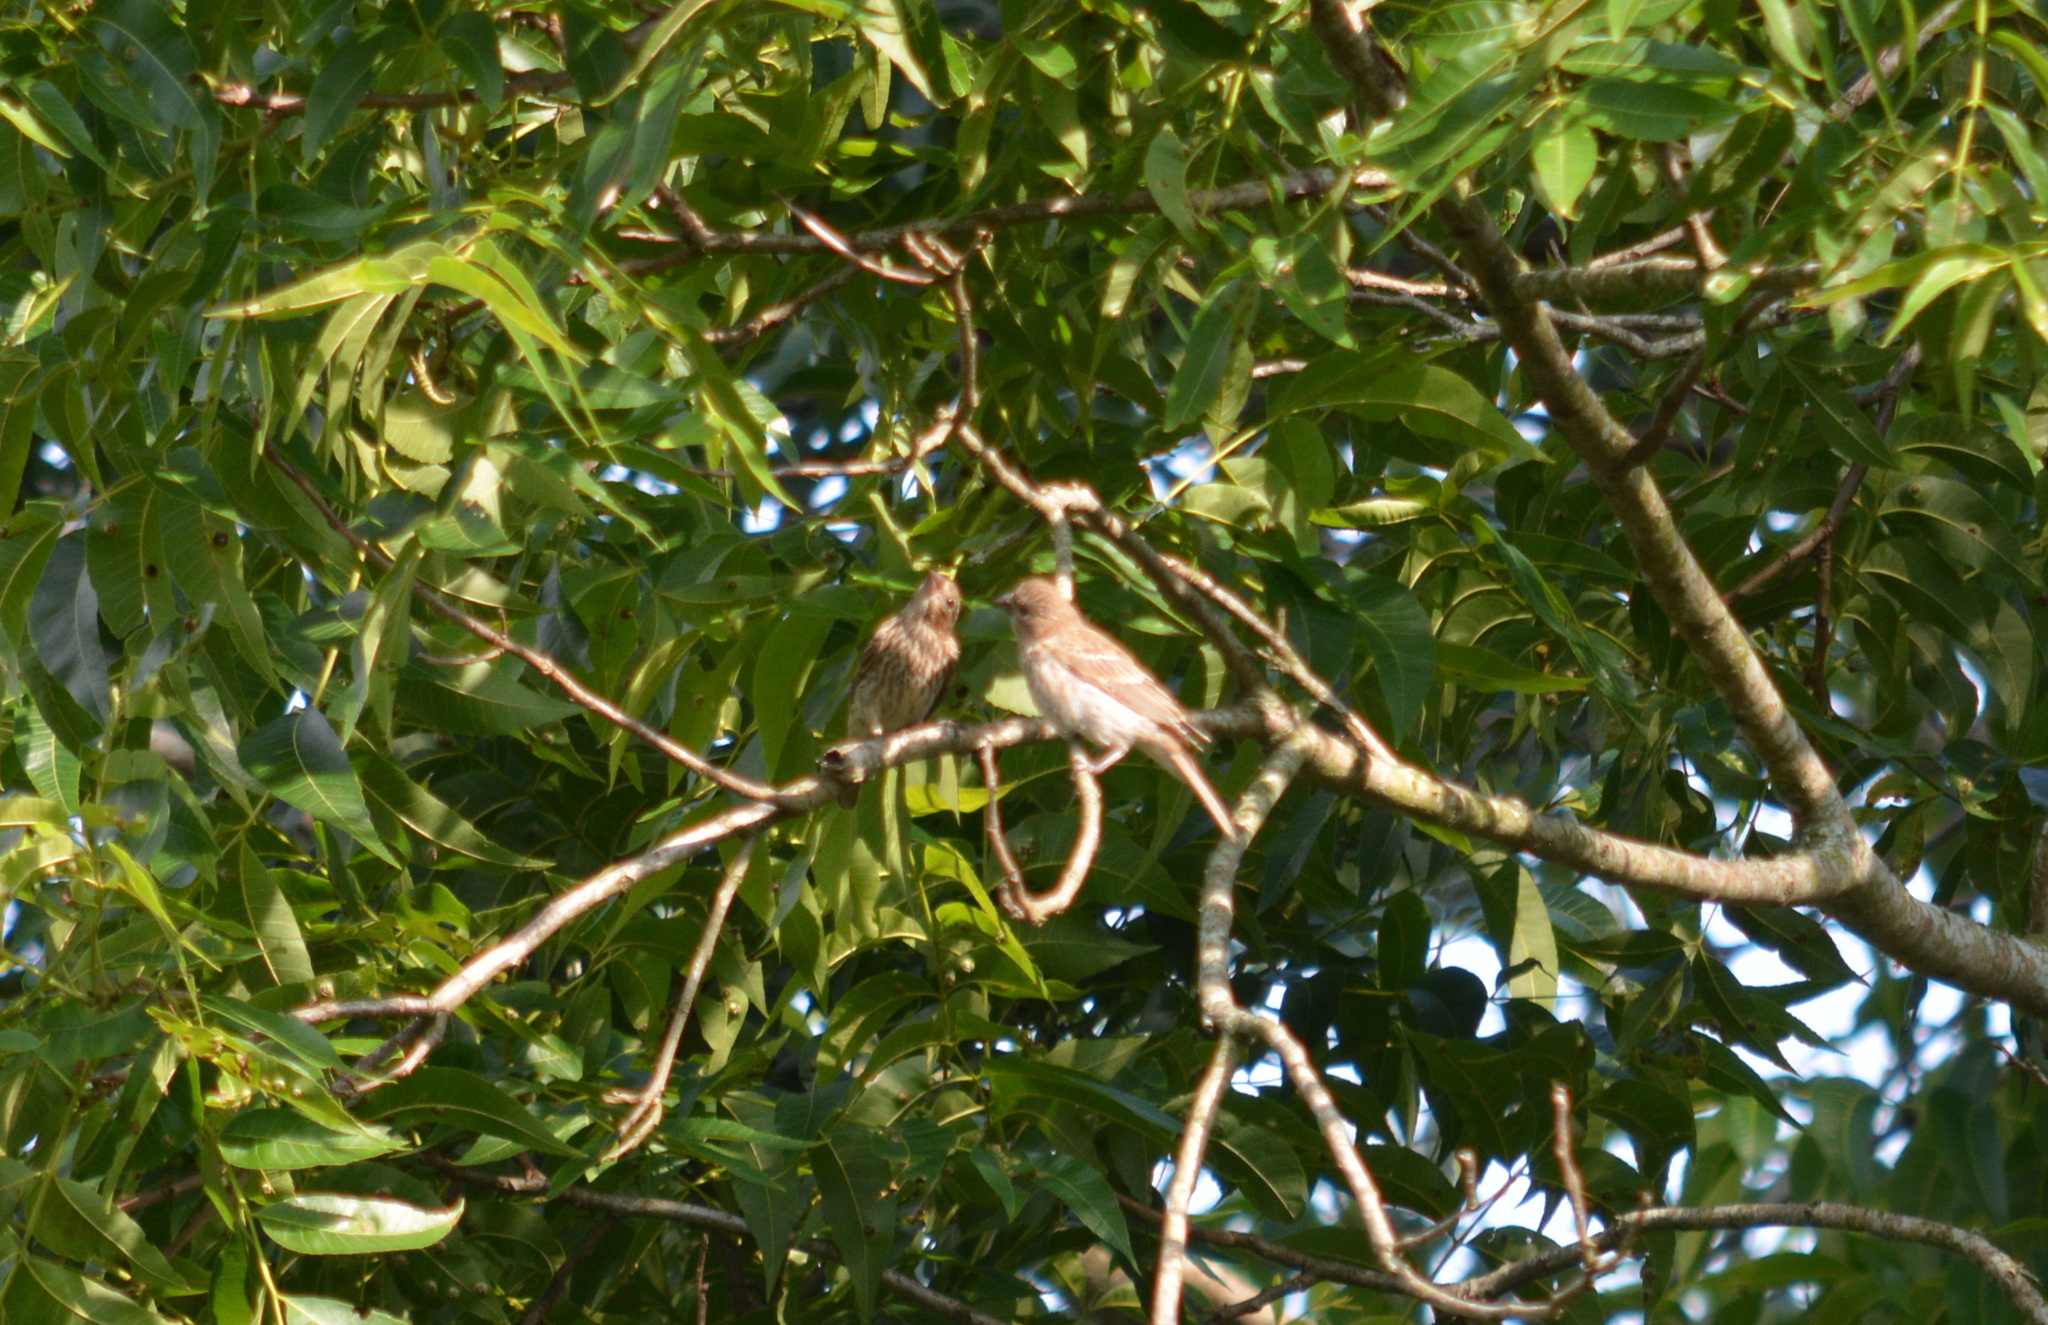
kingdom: Animalia
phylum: Chordata
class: Aves
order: Passeriformes
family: Fringillidae
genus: Haemorhous
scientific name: Haemorhous mexicanus
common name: House finch
